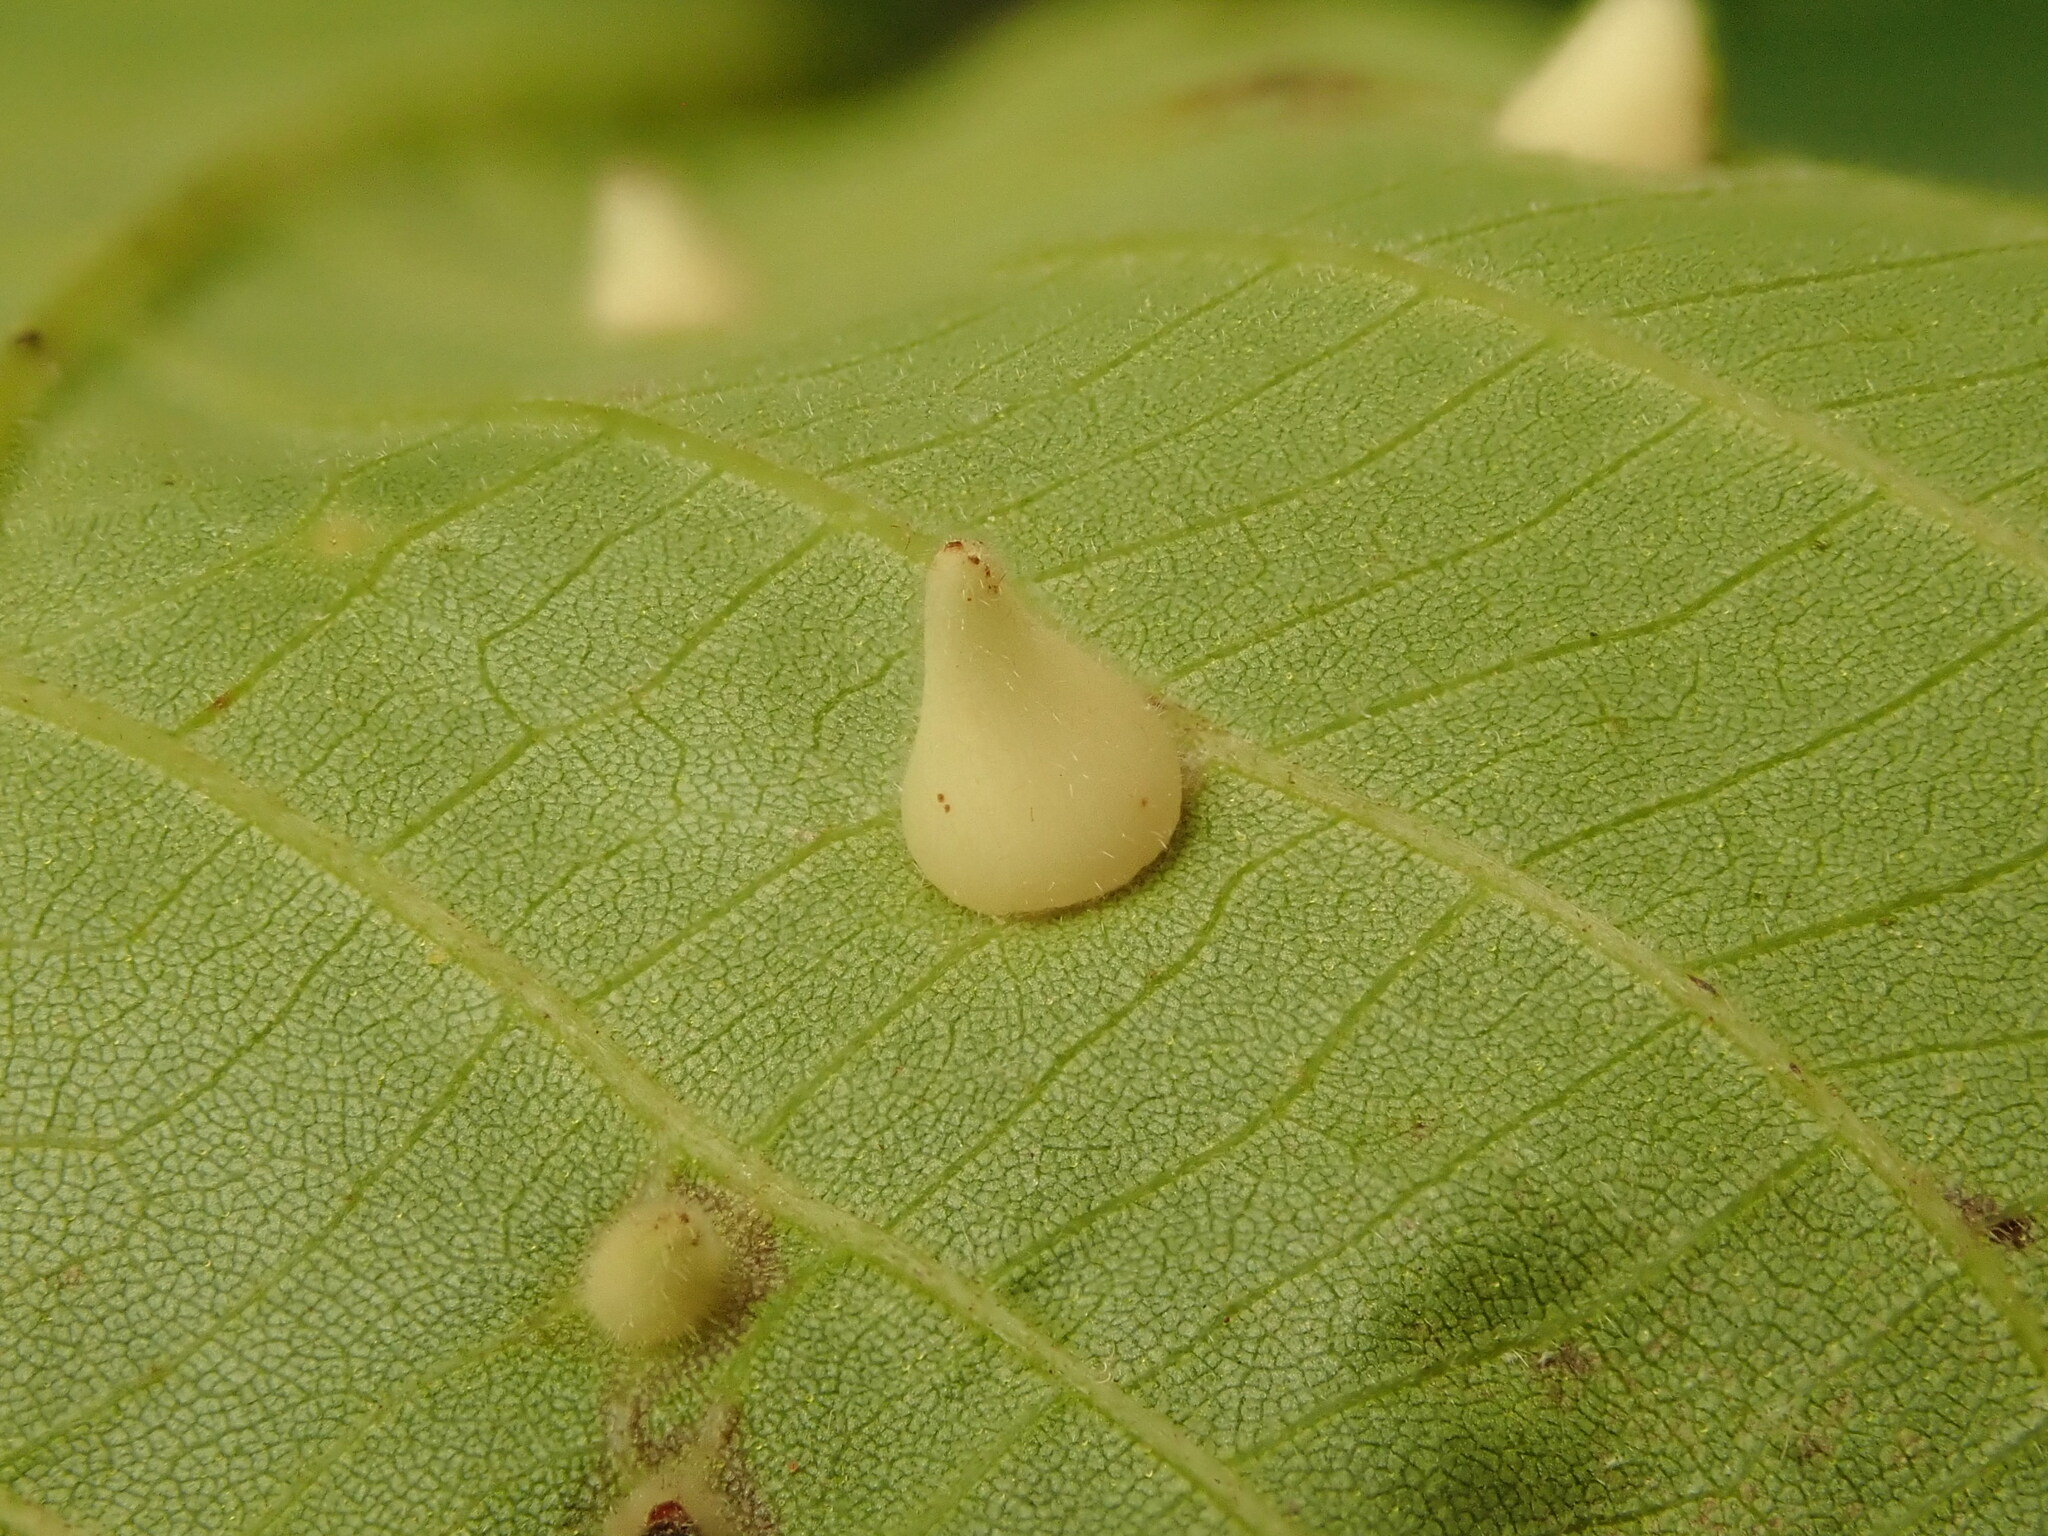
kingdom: Animalia
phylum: Arthropoda
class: Insecta
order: Diptera
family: Cecidomyiidae
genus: Caryomyia
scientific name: Caryomyia conoidea
